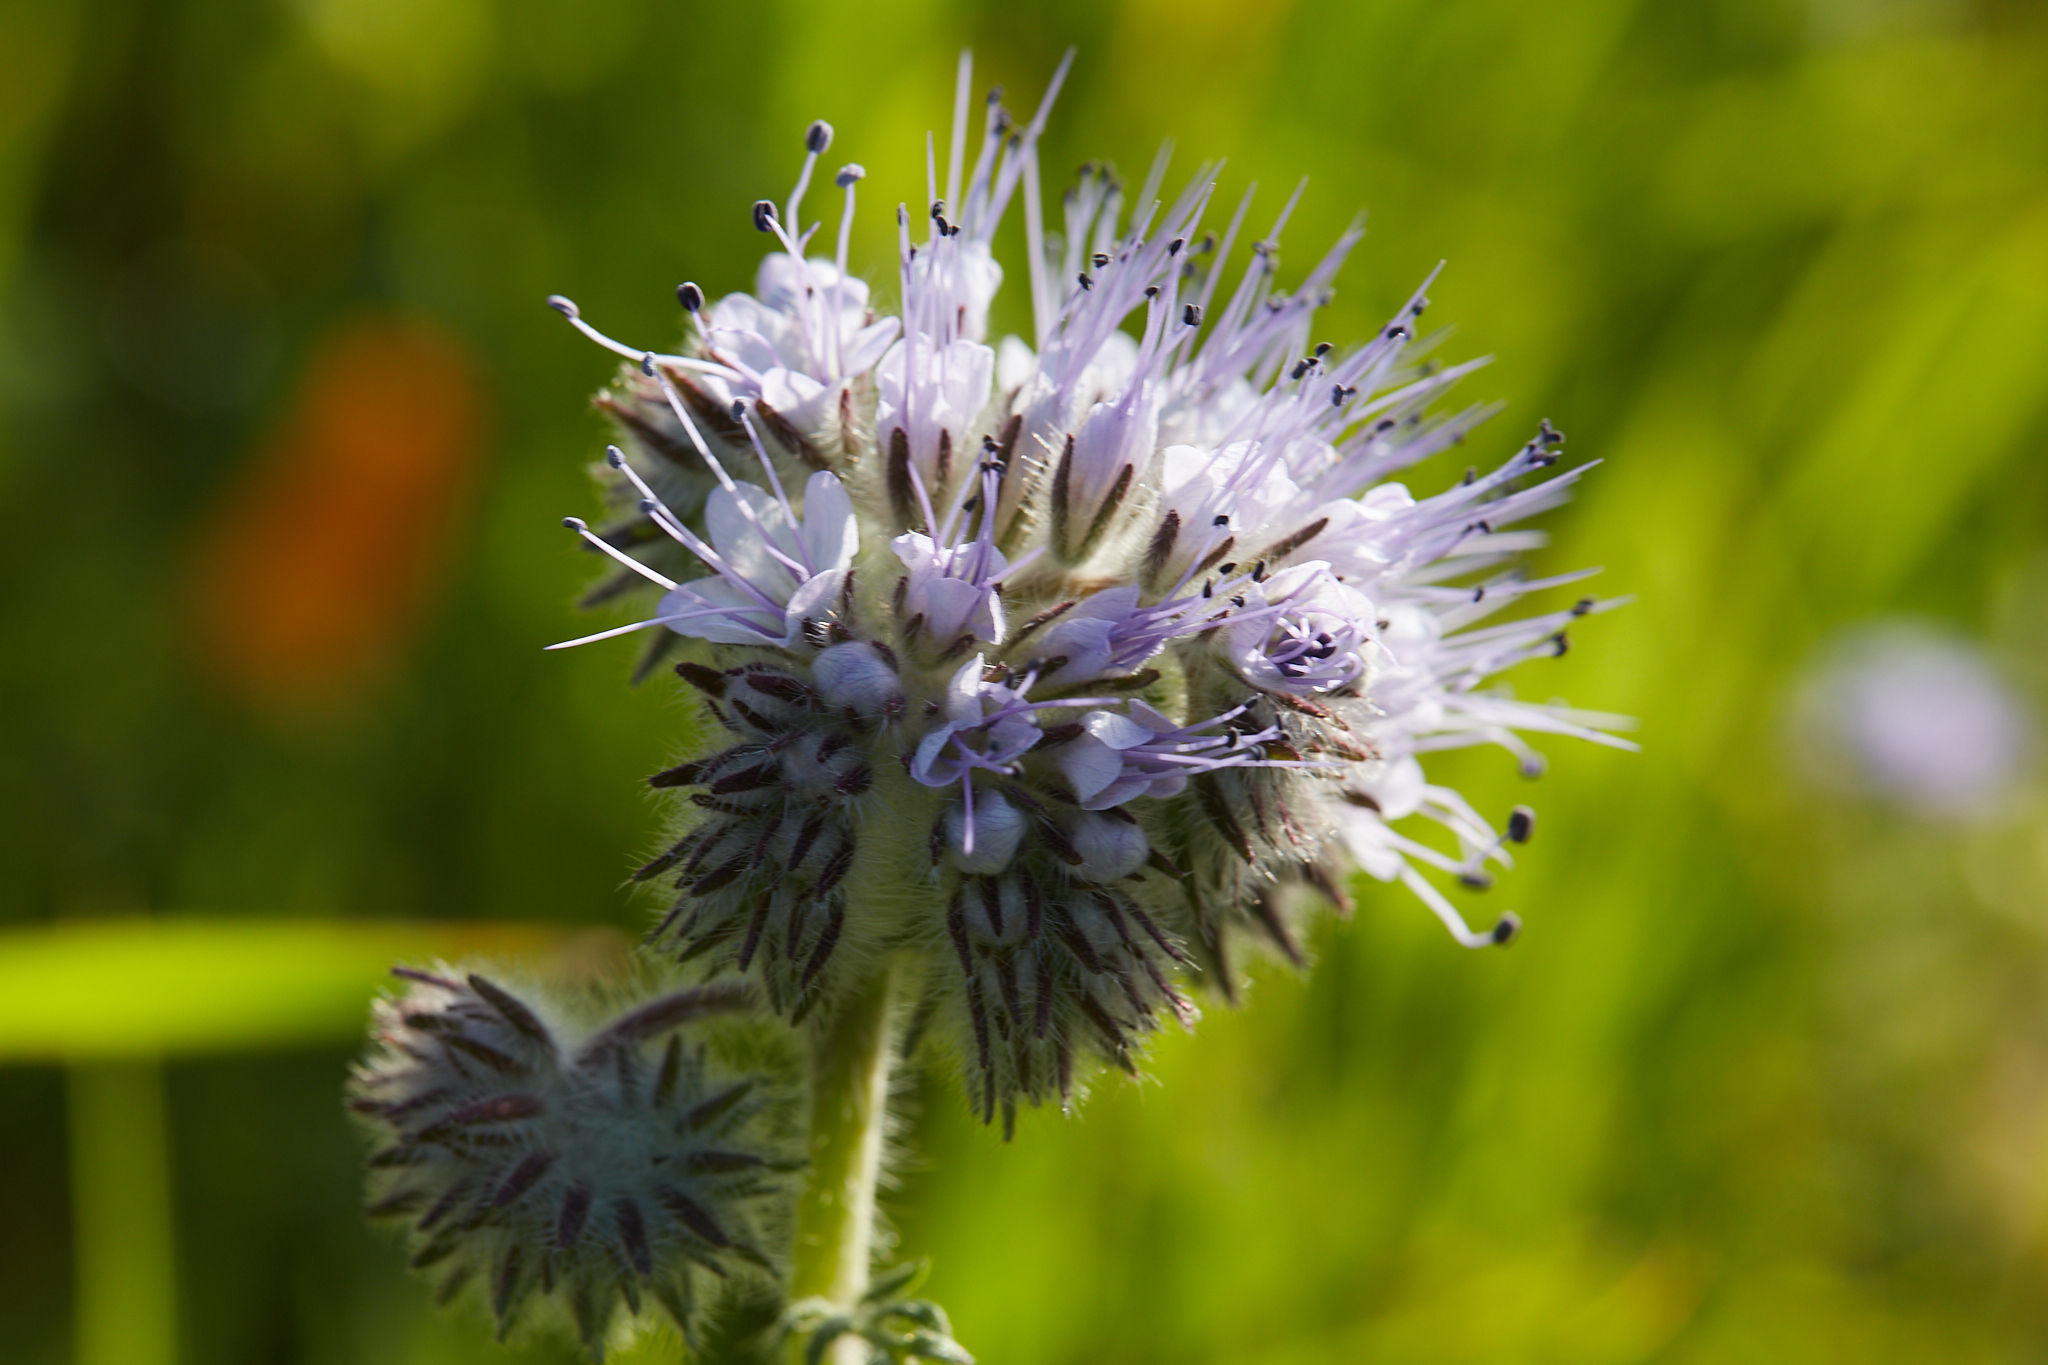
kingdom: Plantae
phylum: Tracheophyta
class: Magnoliopsida
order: Boraginales
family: Hydrophyllaceae
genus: Phacelia
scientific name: Phacelia tanacetifolia
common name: Phacelia
